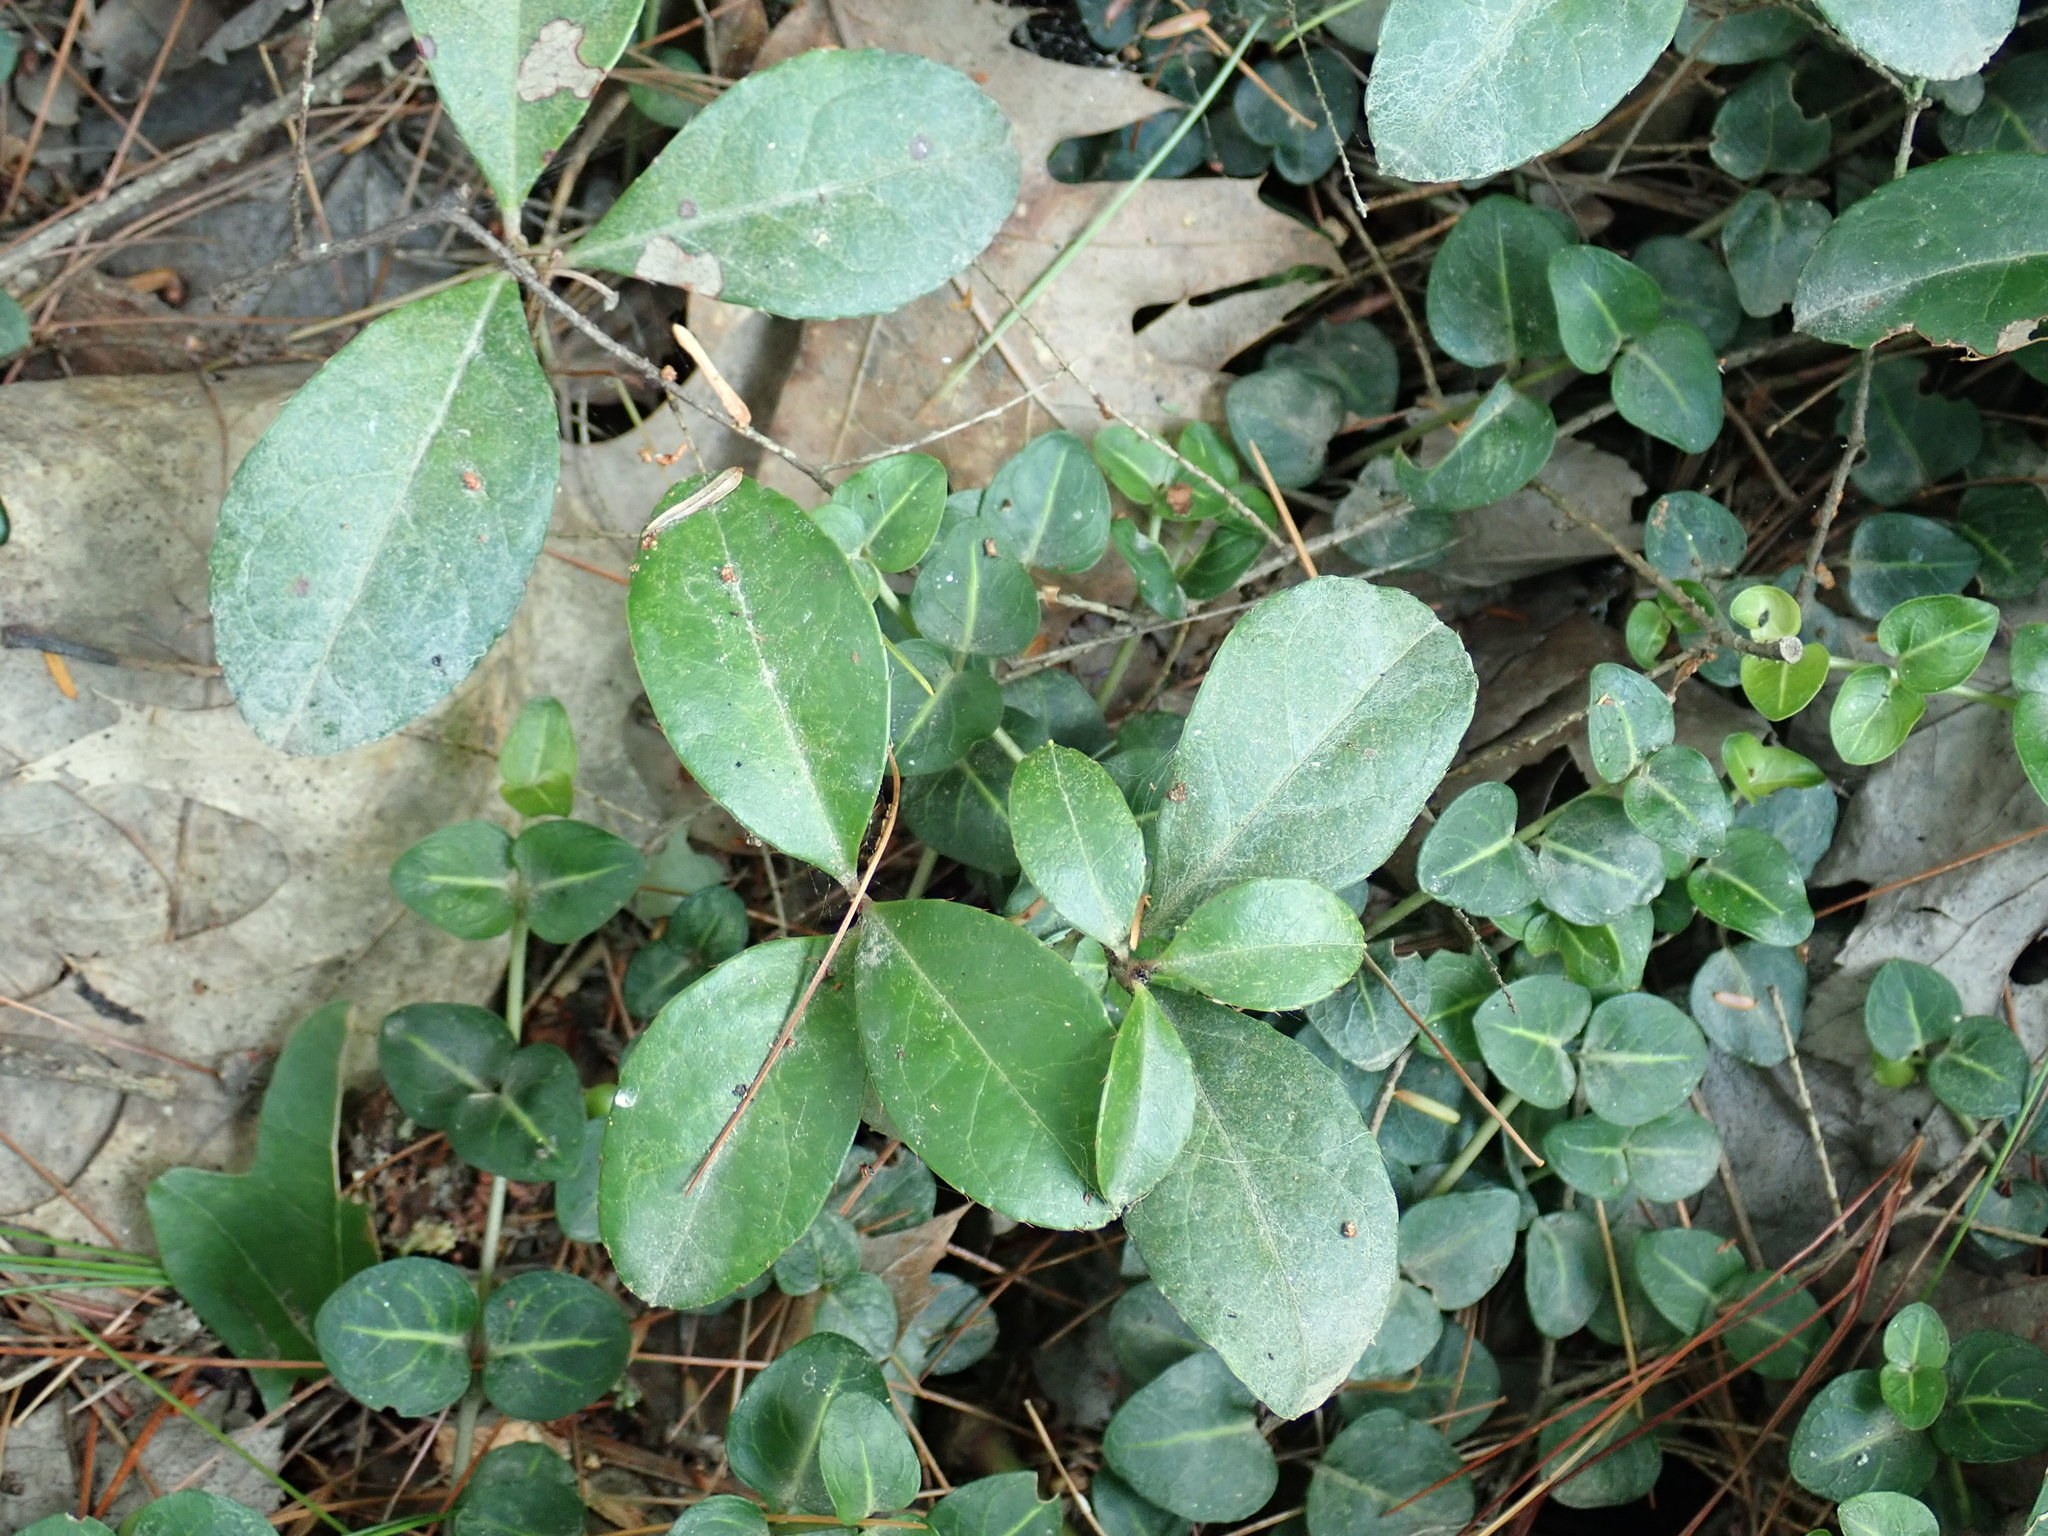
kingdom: Plantae
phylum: Tracheophyta
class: Magnoliopsida
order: Ericales
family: Ericaceae
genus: Gaultheria
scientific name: Gaultheria procumbens
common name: Checkerberry
